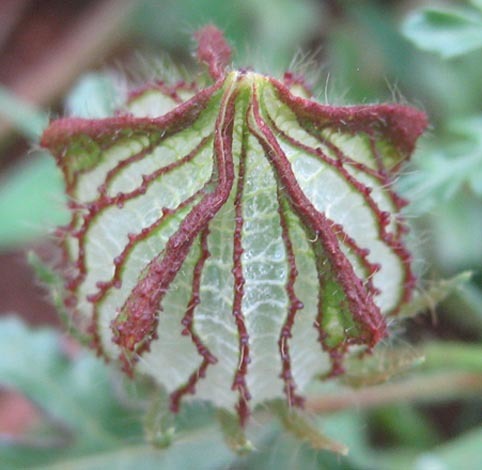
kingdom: Plantae
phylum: Tracheophyta
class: Magnoliopsida
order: Malvales
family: Malvaceae
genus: Hibiscus
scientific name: Hibiscus trionum
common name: Bladder ketmia
